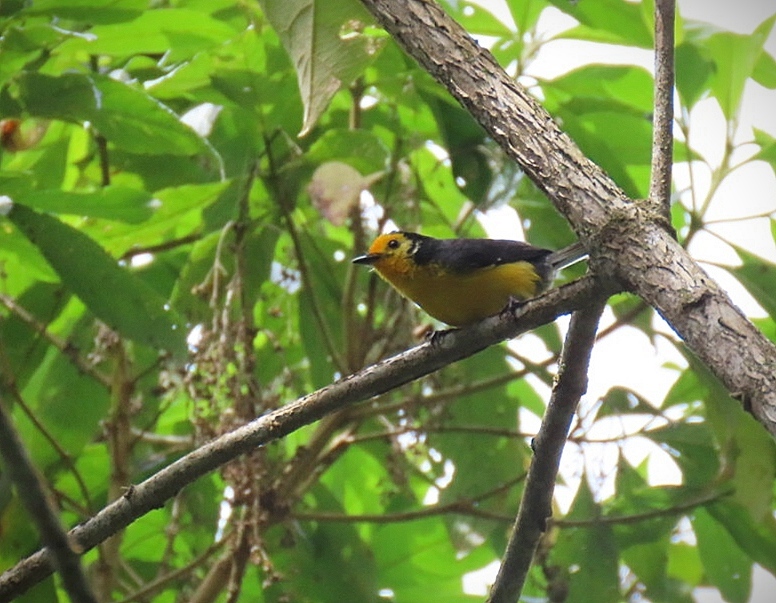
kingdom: Animalia
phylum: Chordata
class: Aves
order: Passeriformes
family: Parulidae
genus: Myioborus
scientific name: Myioborus ornatus
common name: Golden-fronted whitestart
